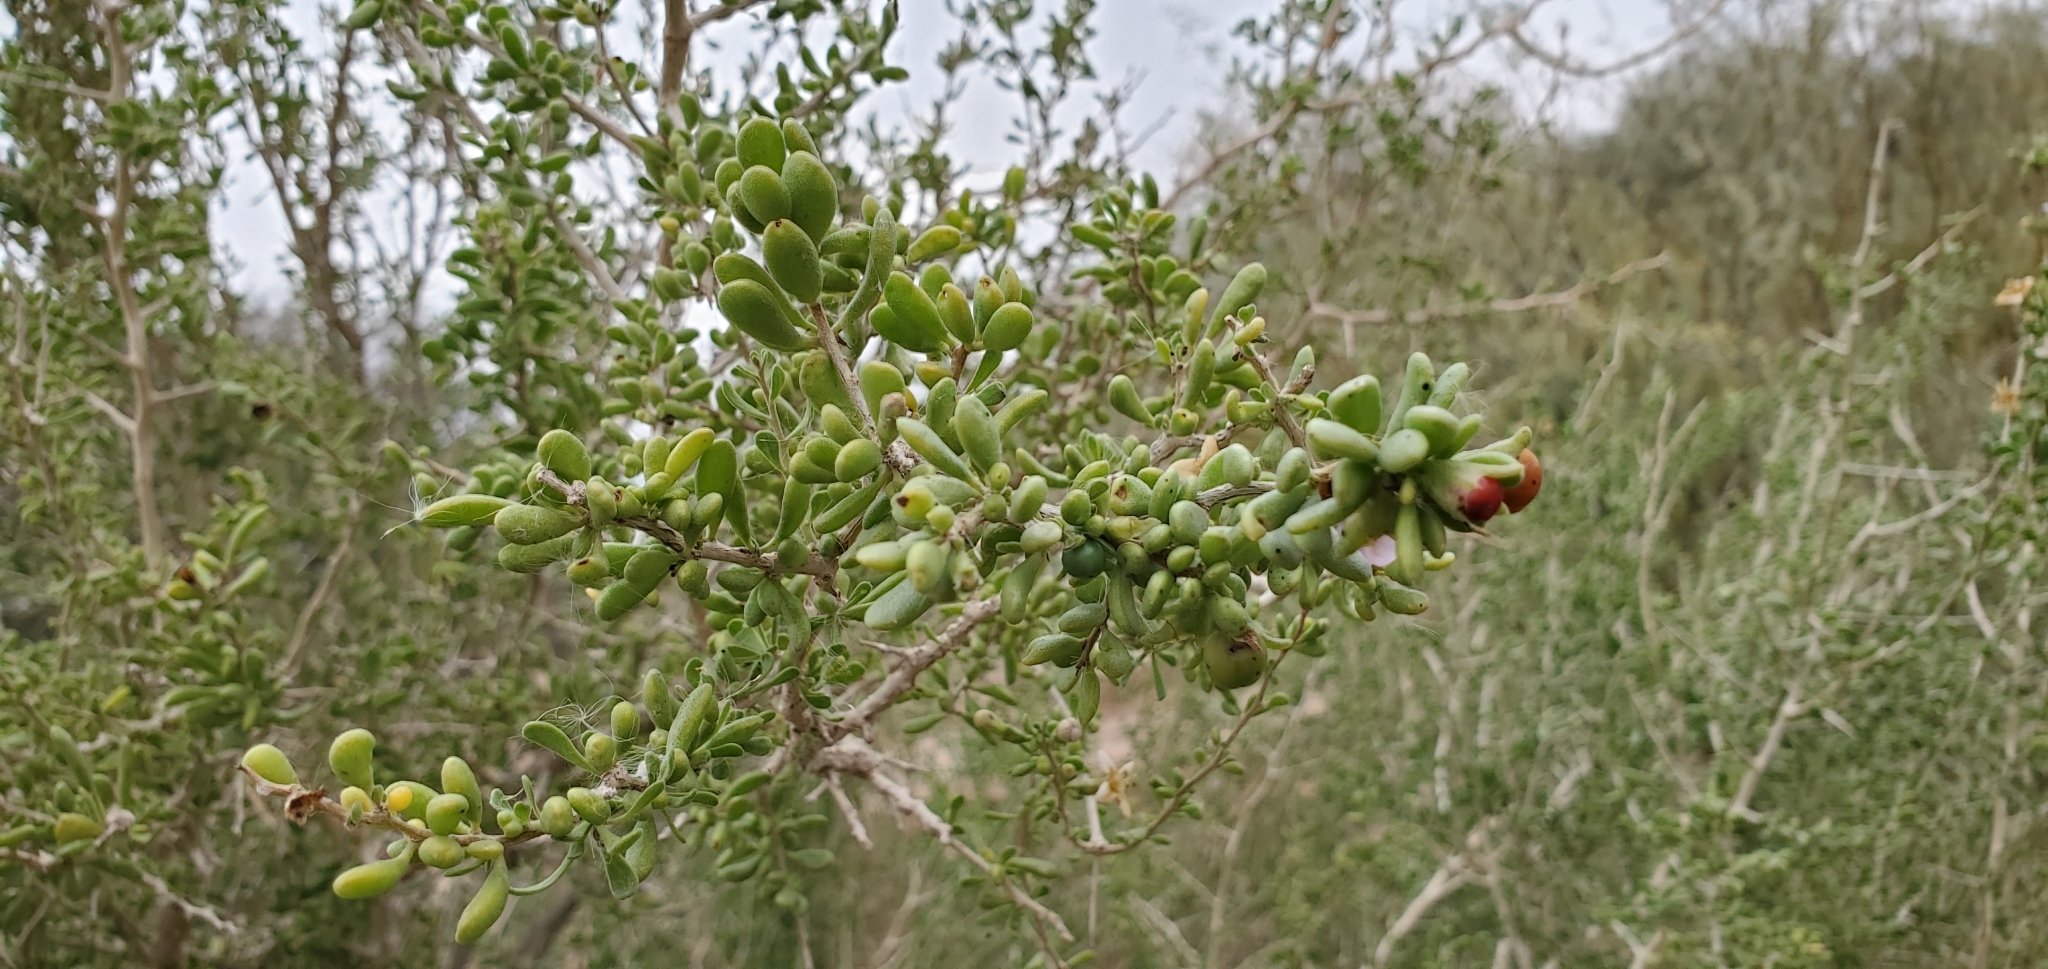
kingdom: Plantae
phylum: Tracheophyta
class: Magnoliopsida
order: Solanales
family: Solanaceae
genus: Lycium
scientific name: Lycium brevipes
